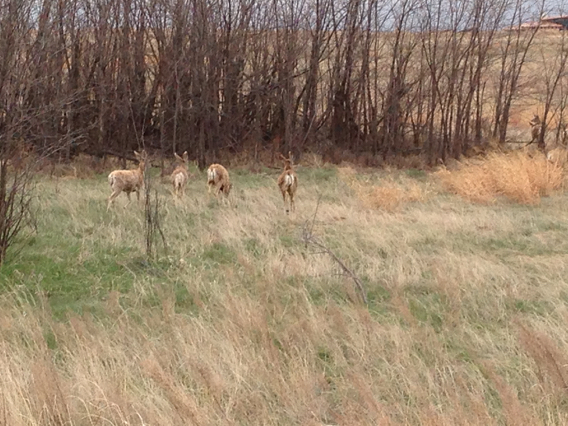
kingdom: Animalia
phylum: Chordata
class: Mammalia
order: Artiodactyla
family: Cervidae
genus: Odocoileus
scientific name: Odocoileus hemionus
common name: Mule deer
